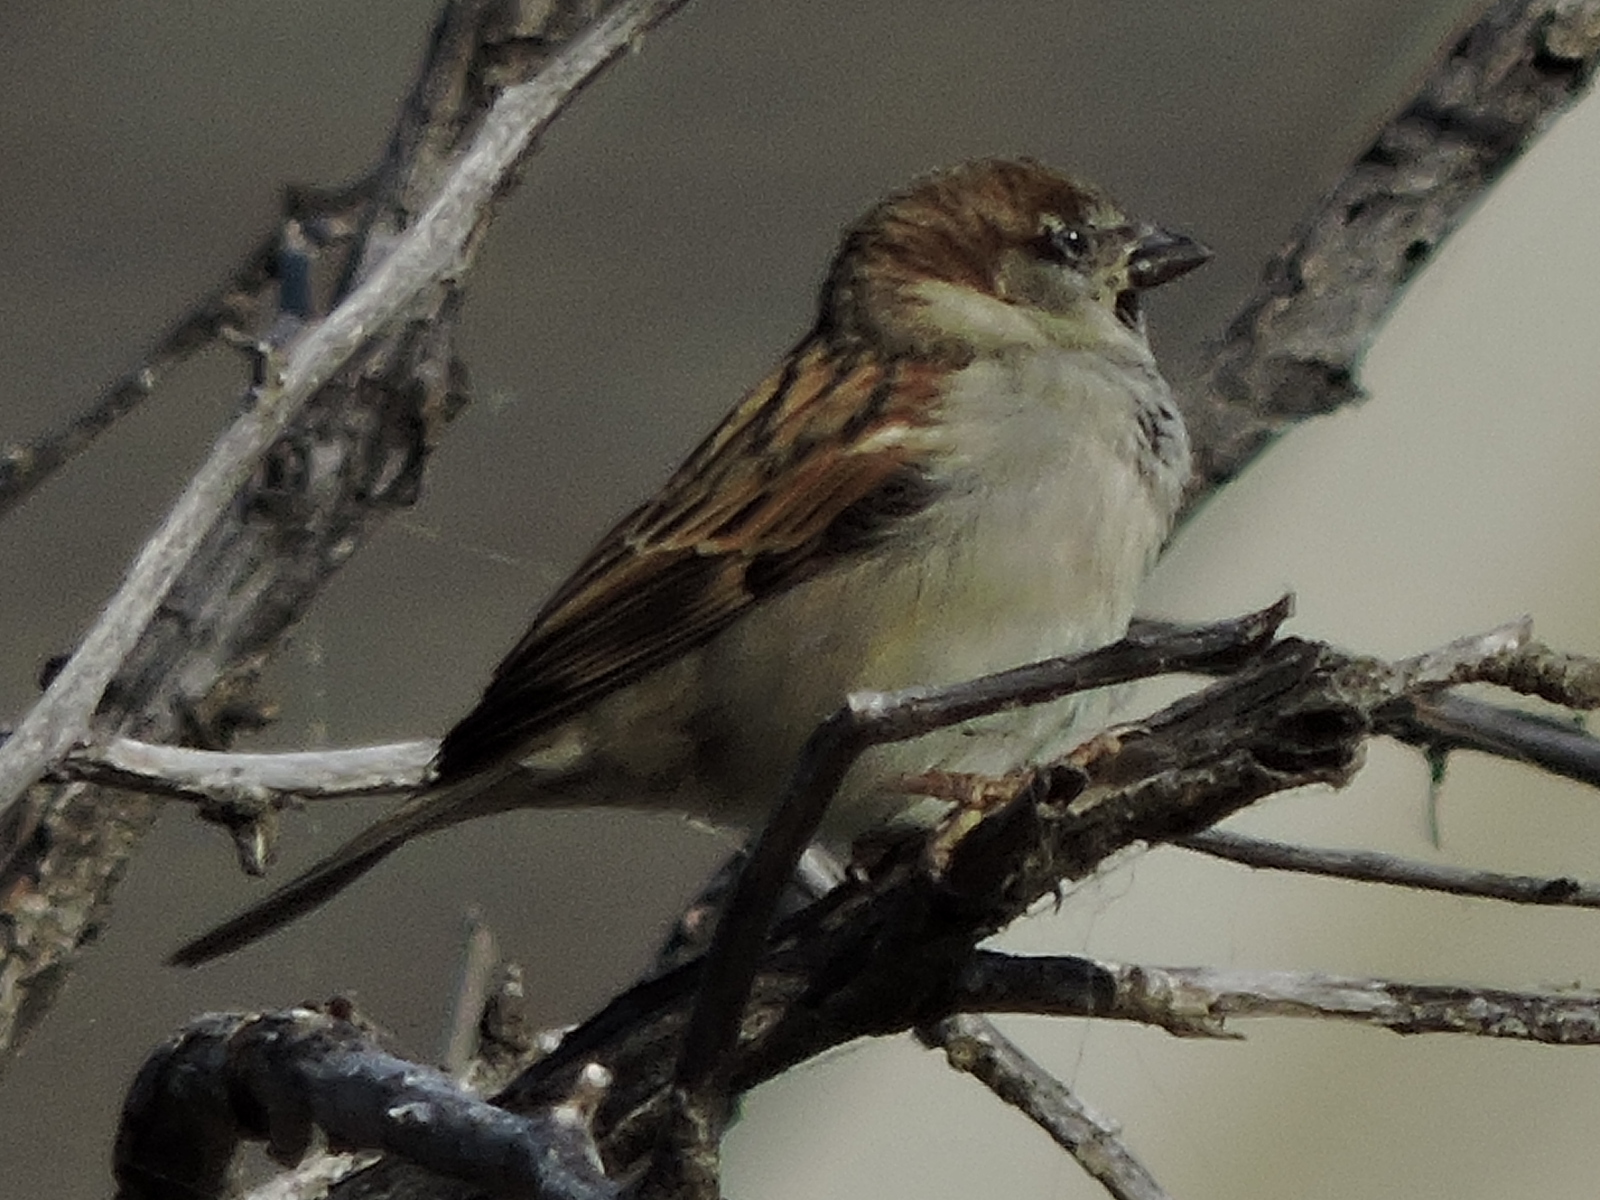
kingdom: Animalia
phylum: Chordata
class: Aves
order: Passeriformes
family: Passeridae
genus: Passer
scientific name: Passer domesticus
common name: House sparrow
